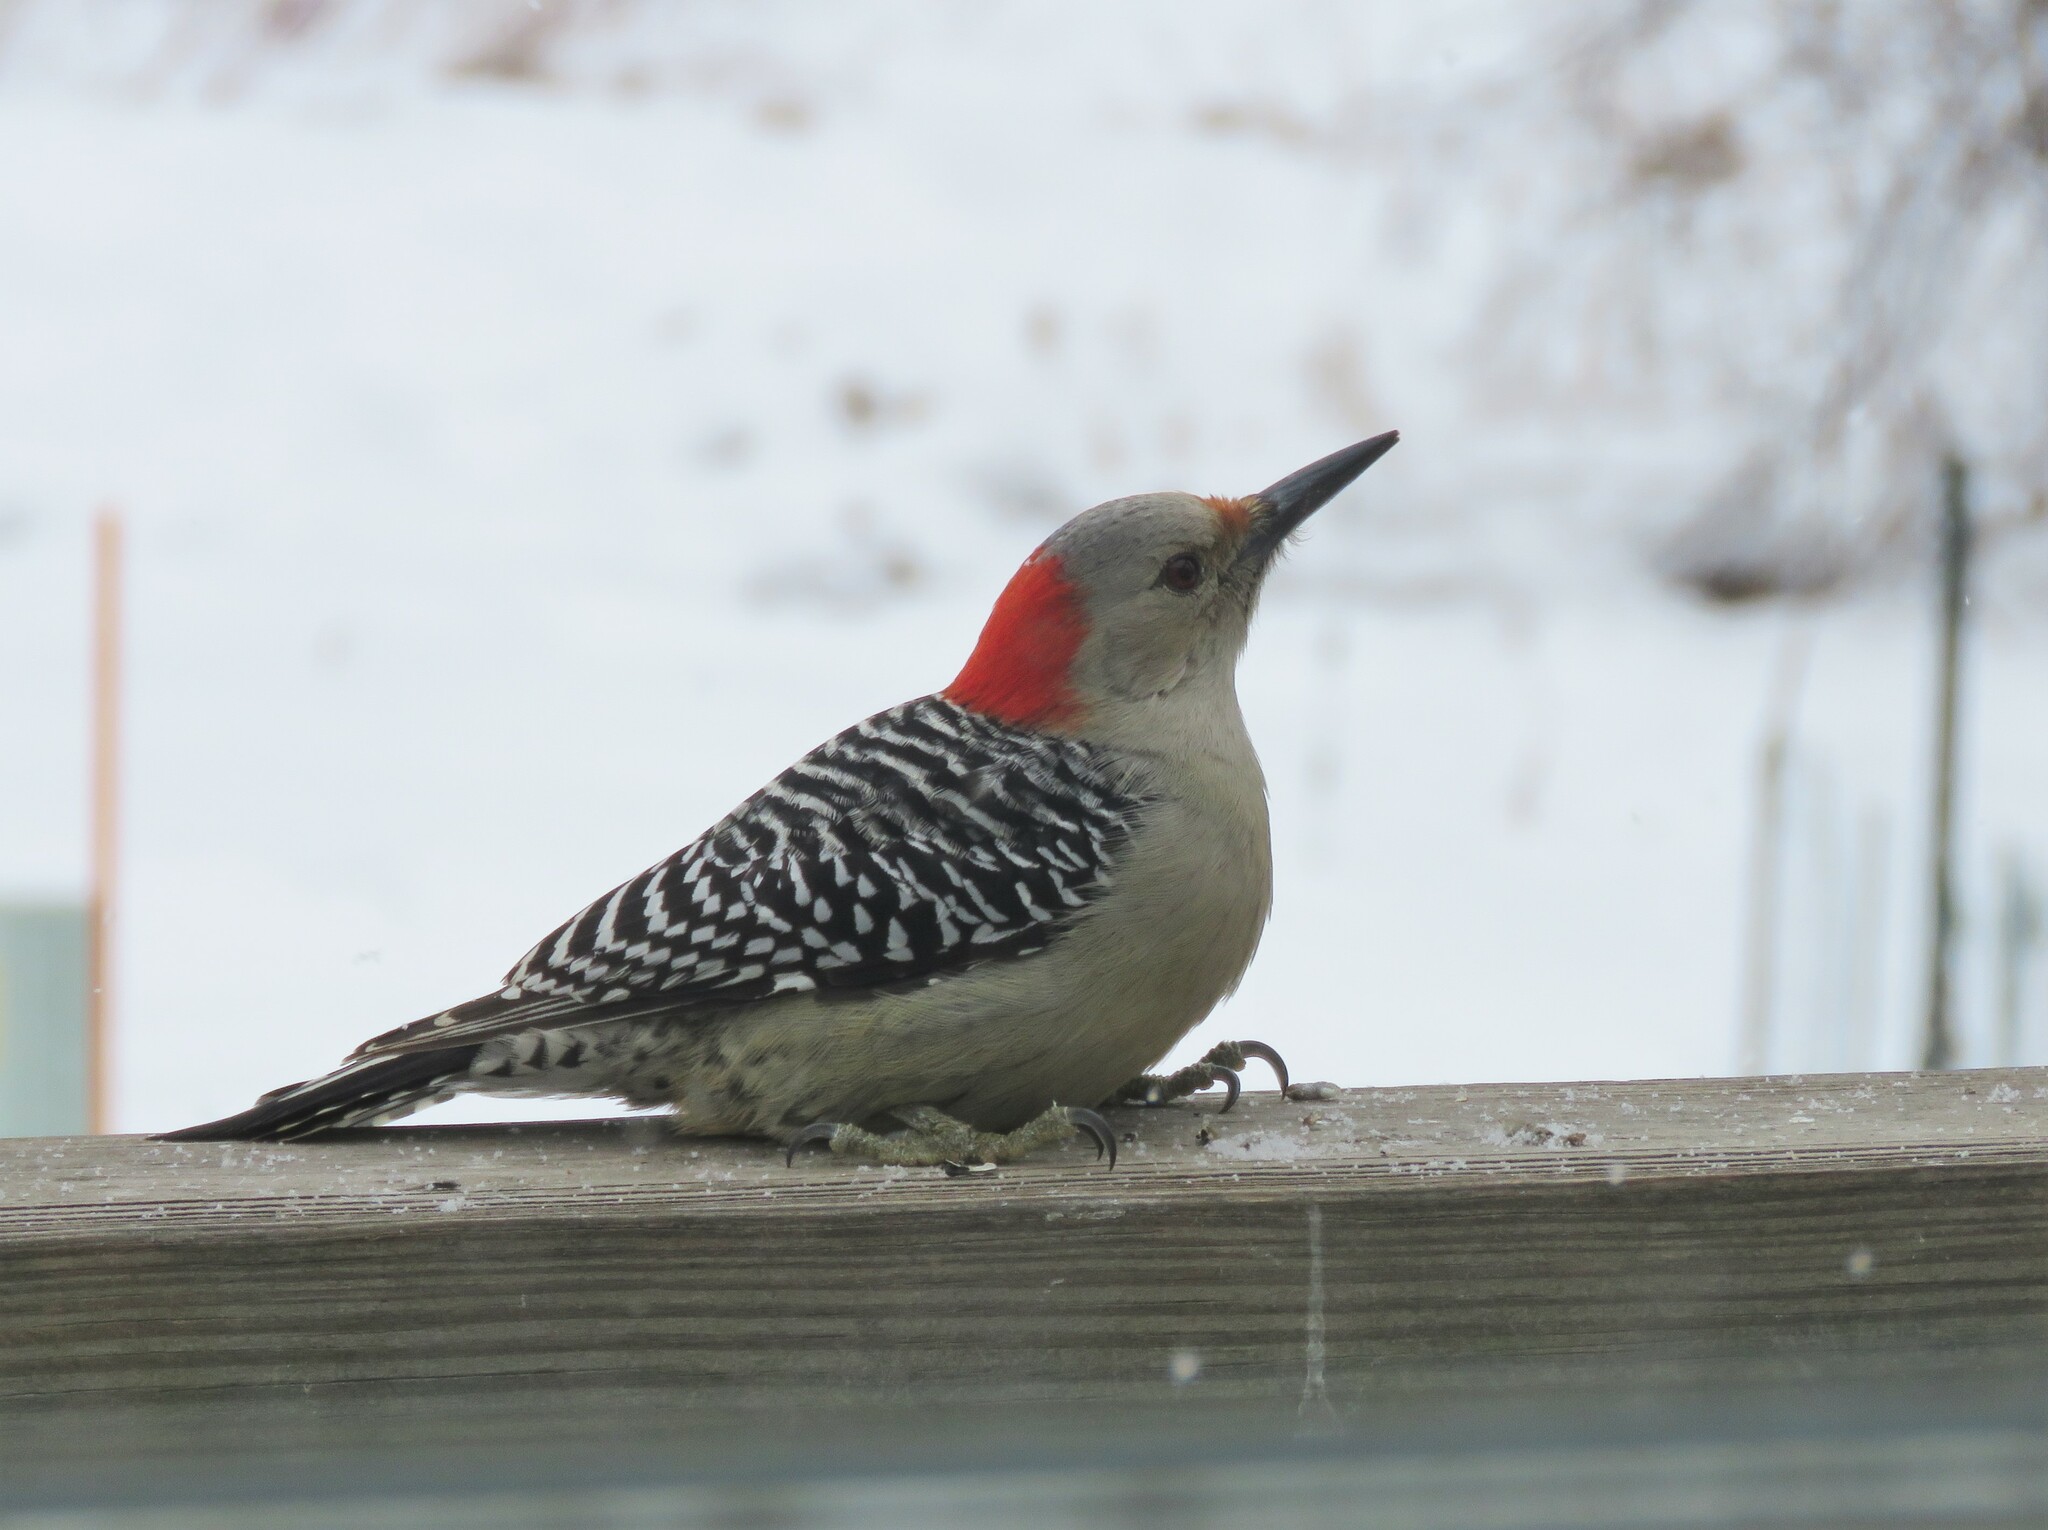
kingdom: Animalia
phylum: Chordata
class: Aves
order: Piciformes
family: Picidae
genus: Melanerpes
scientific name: Melanerpes carolinus
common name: Red-bellied woodpecker
